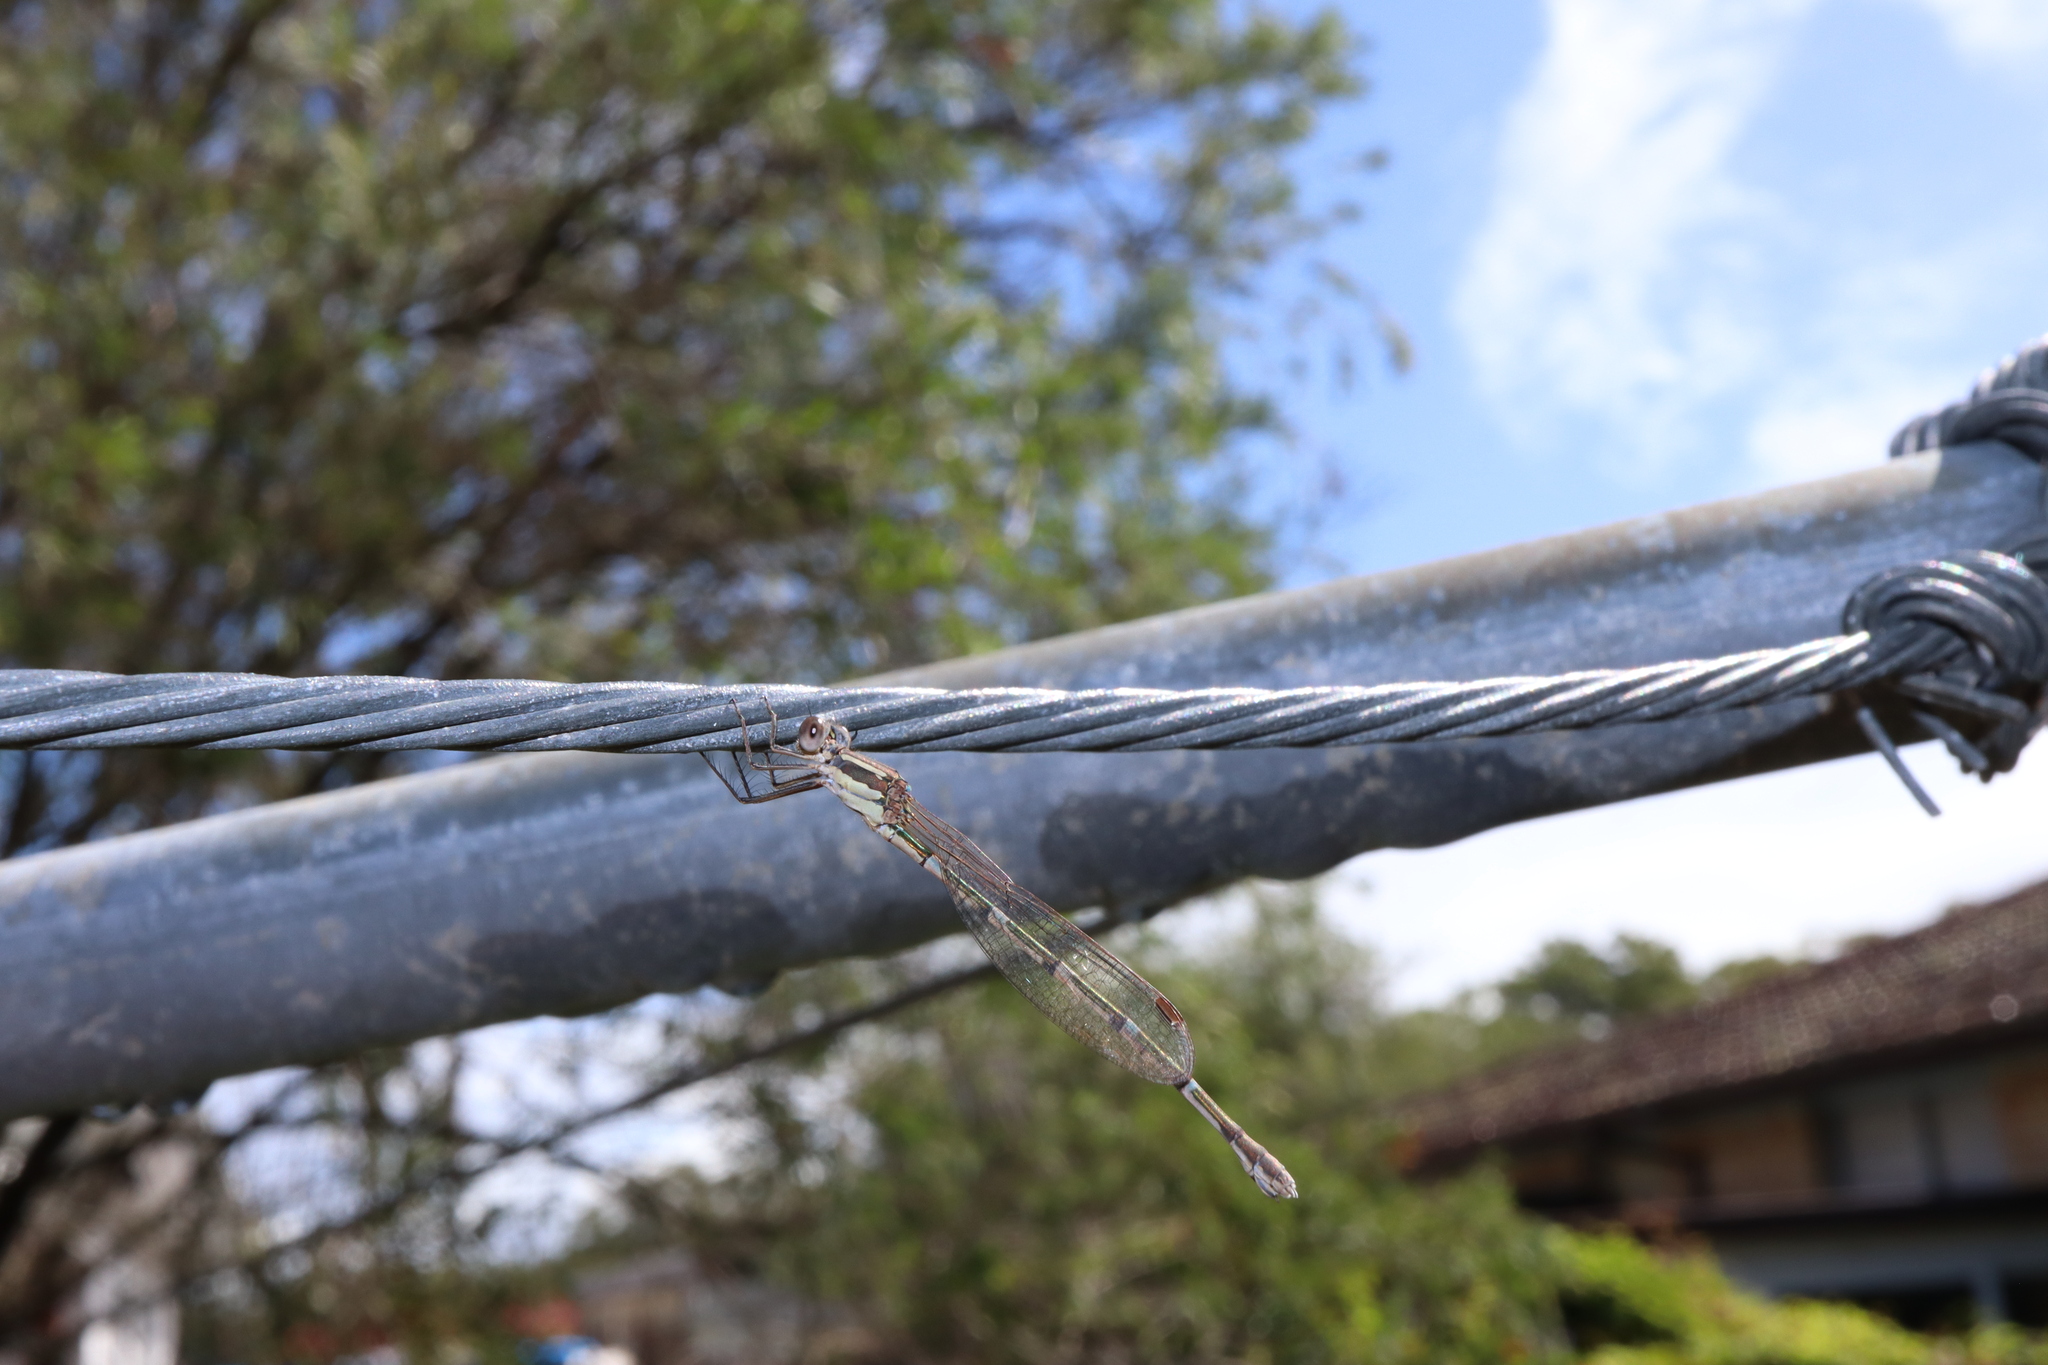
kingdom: Animalia
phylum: Arthropoda
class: Insecta
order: Odonata
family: Lestidae
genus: Austrolestes
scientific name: Austrolestes leda
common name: Wandering ringtail
